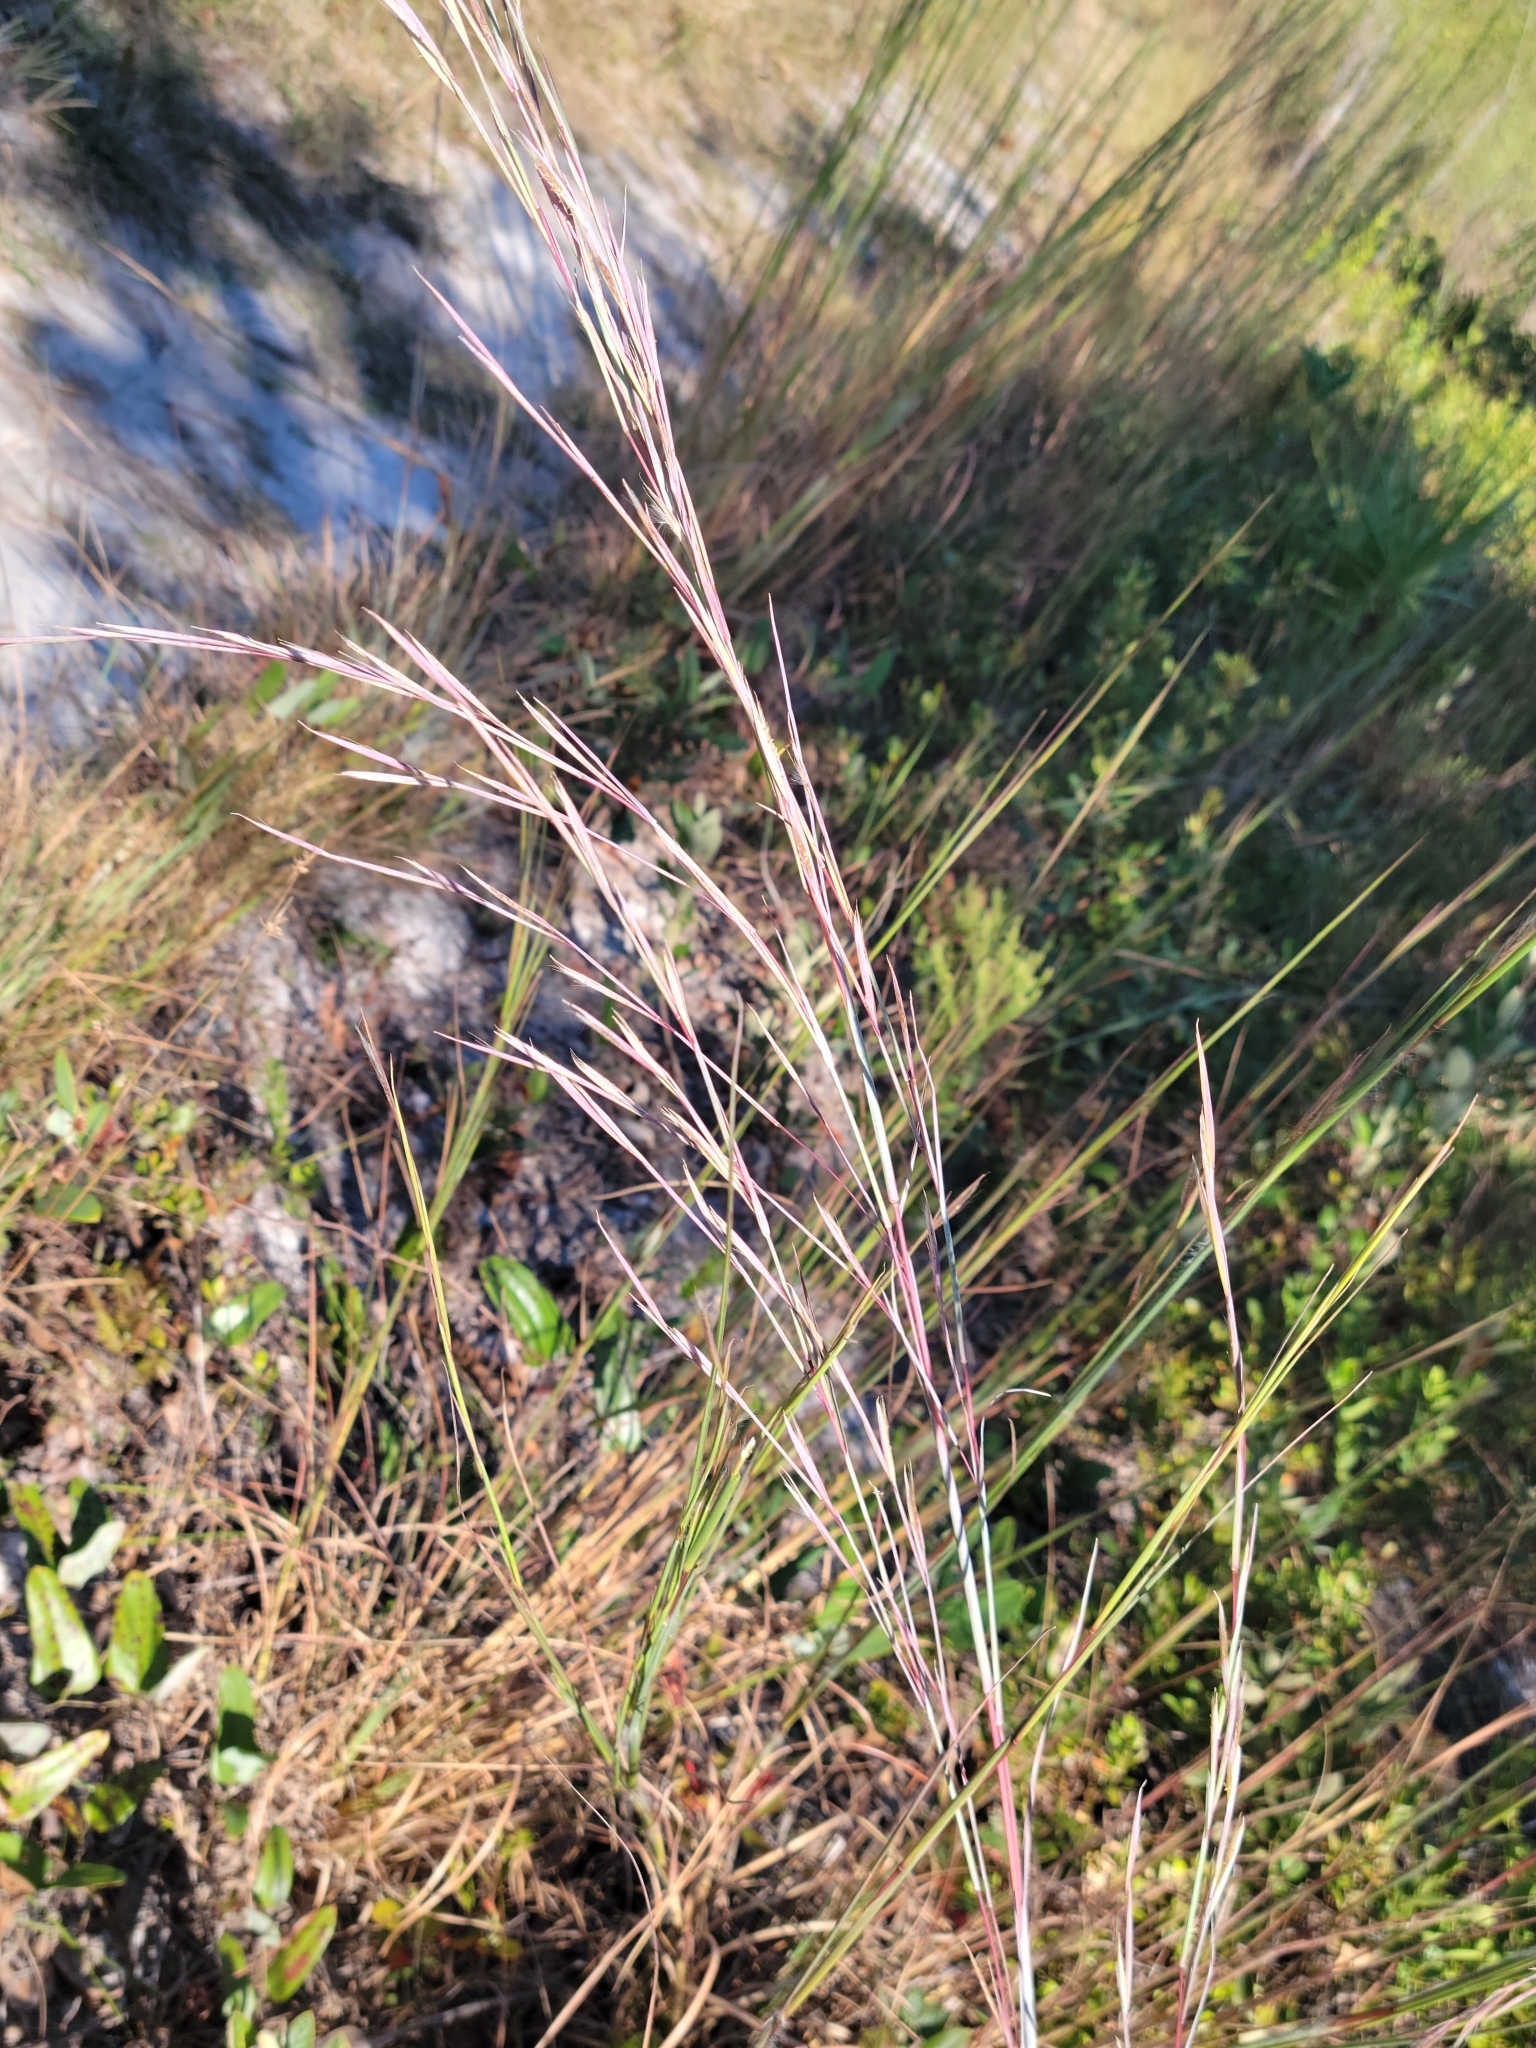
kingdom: Plantae
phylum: Tracheophyta
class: Liliopsida
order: Poales
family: Poaceae
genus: Andropogon
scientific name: Andropogon capillipes
